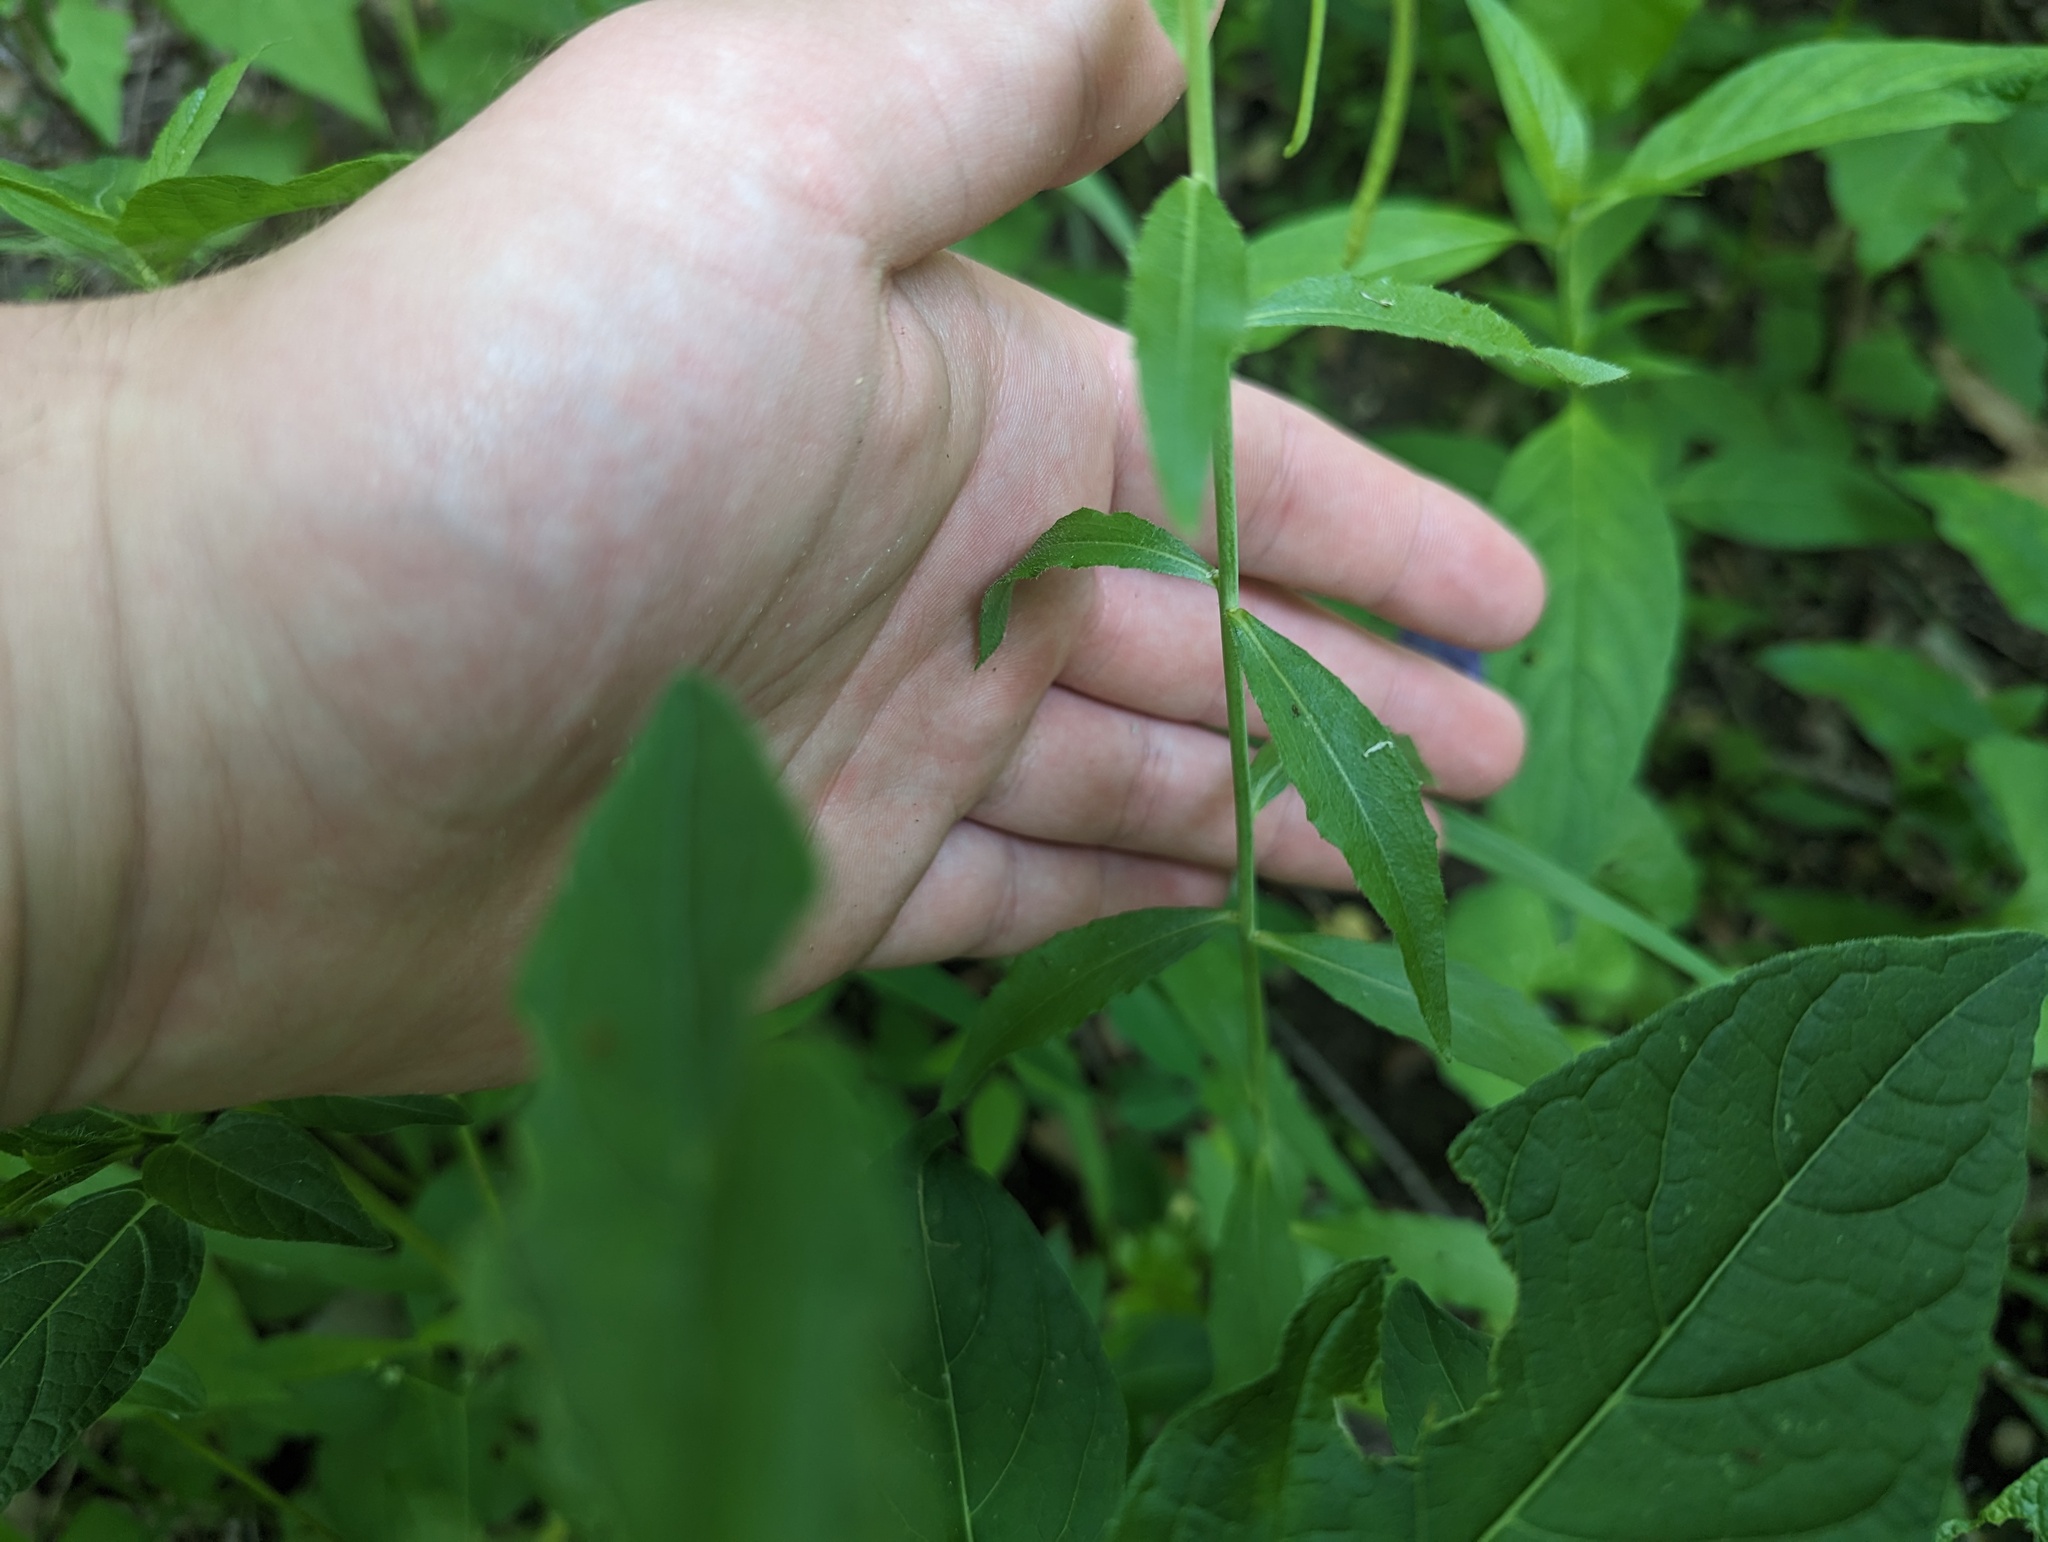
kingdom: Plantae
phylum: Tracheophyta
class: Magnoliopsida
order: Brassicales
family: Brassicaceae
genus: Borodinia
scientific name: Borodinia canadensis
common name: Sicklepod
